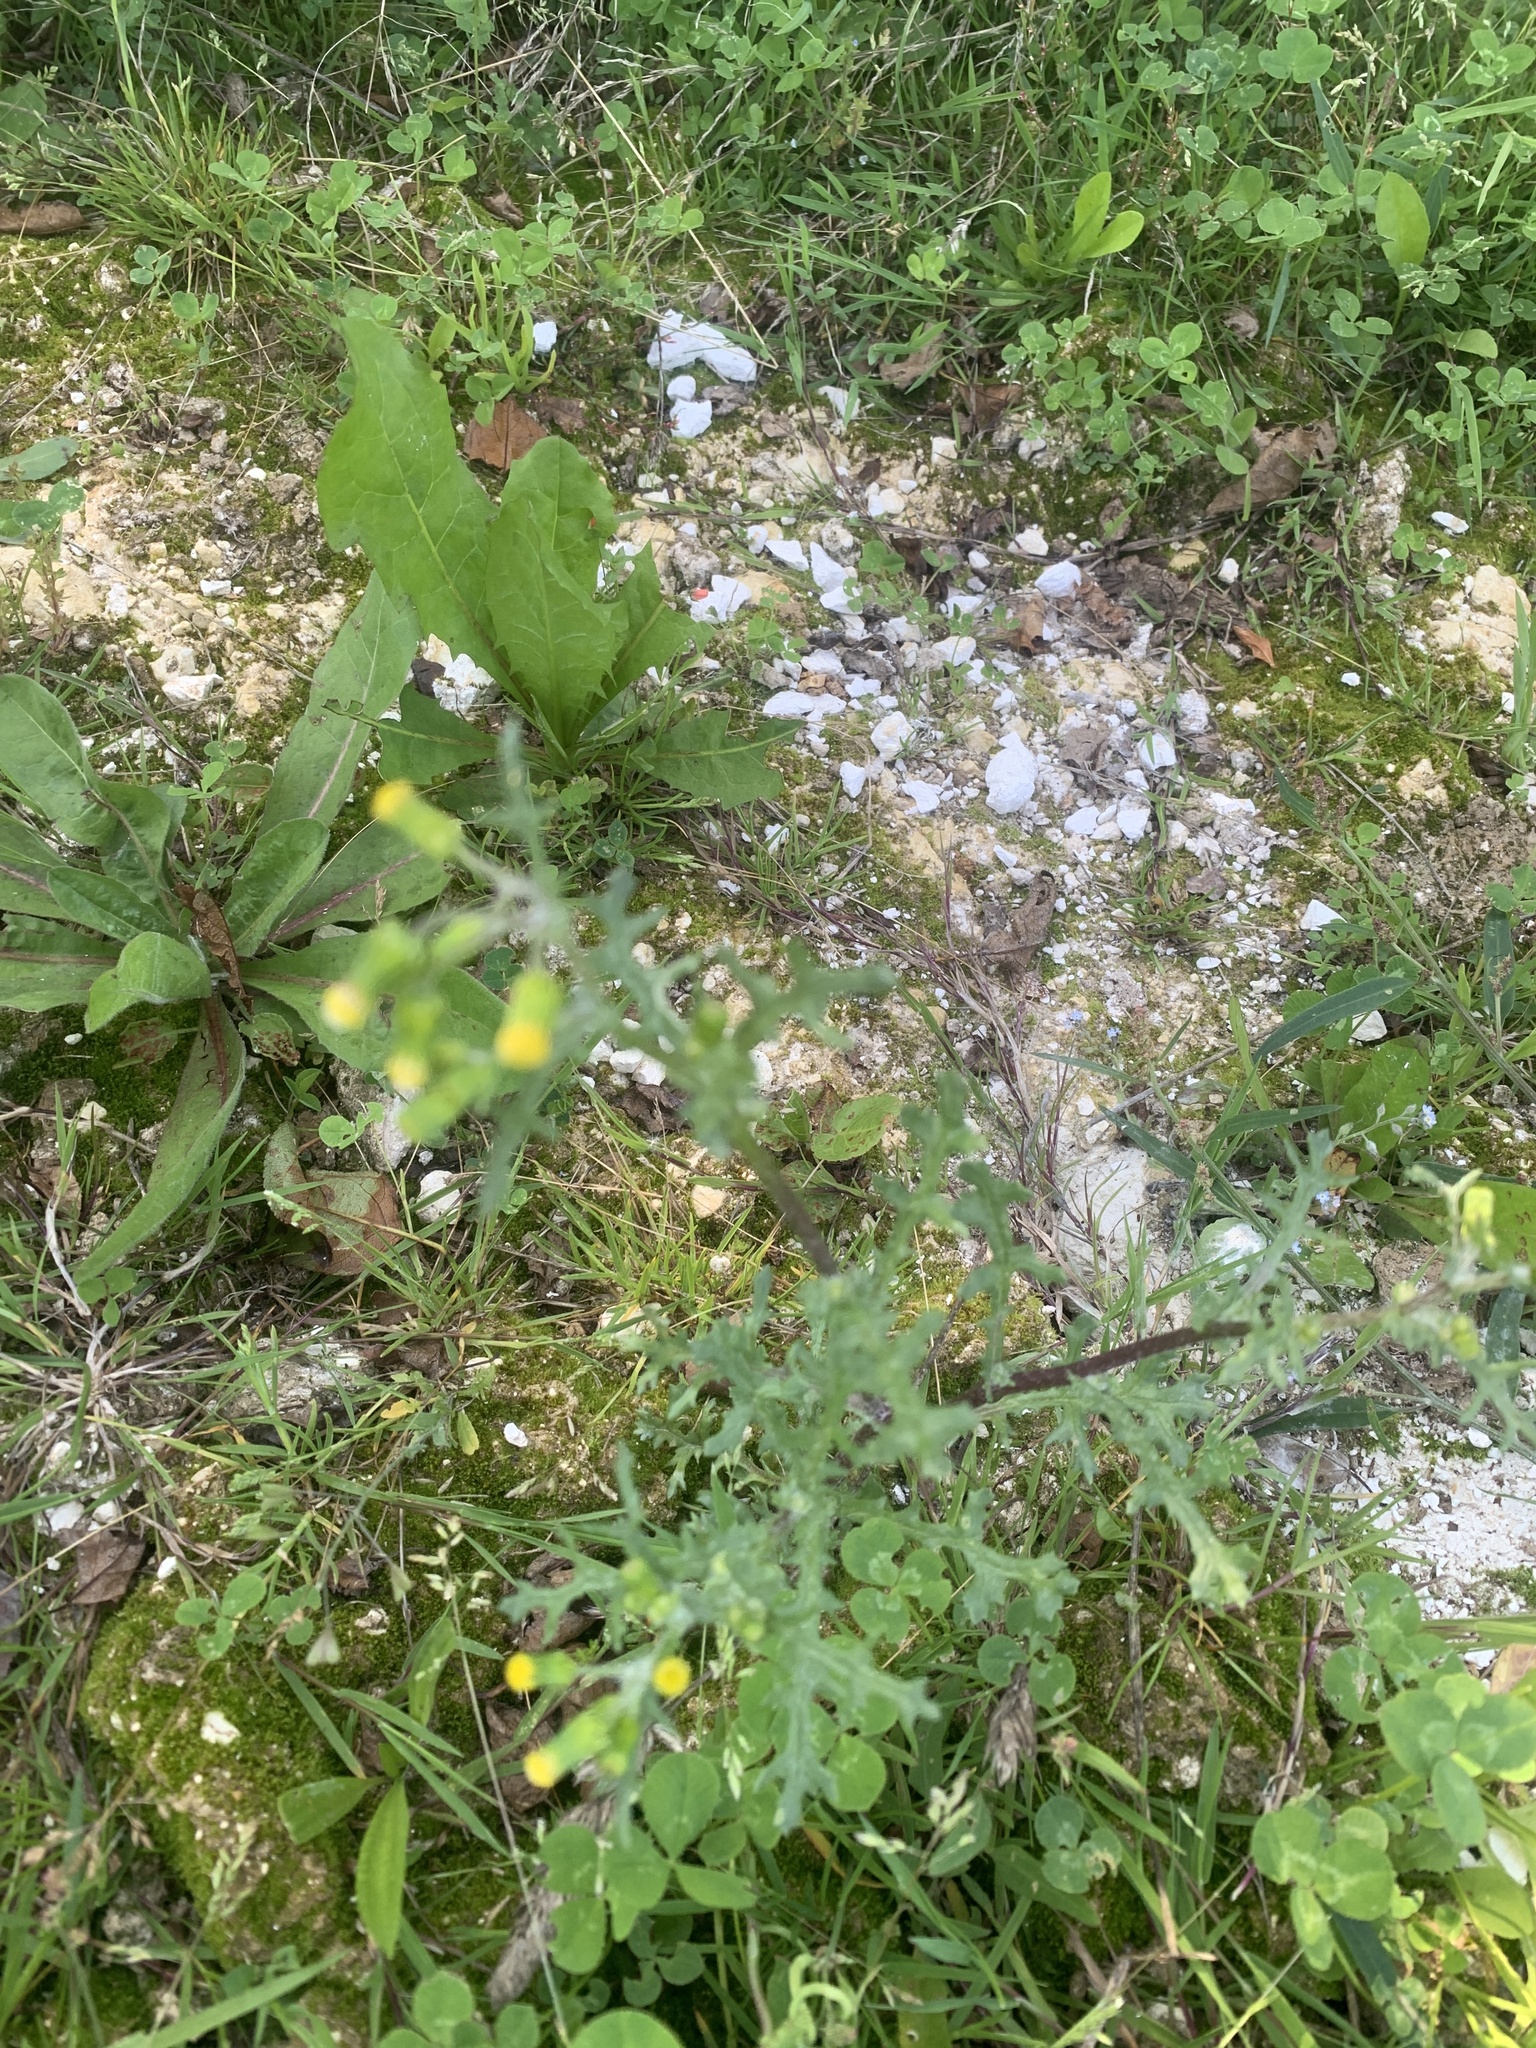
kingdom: Plantae
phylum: Tracheophyta
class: Magnoliopsida
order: Asterales
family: Asteraceae
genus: Senecio
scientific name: Senecio vulgaris
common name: Old-man-in-the-spring
